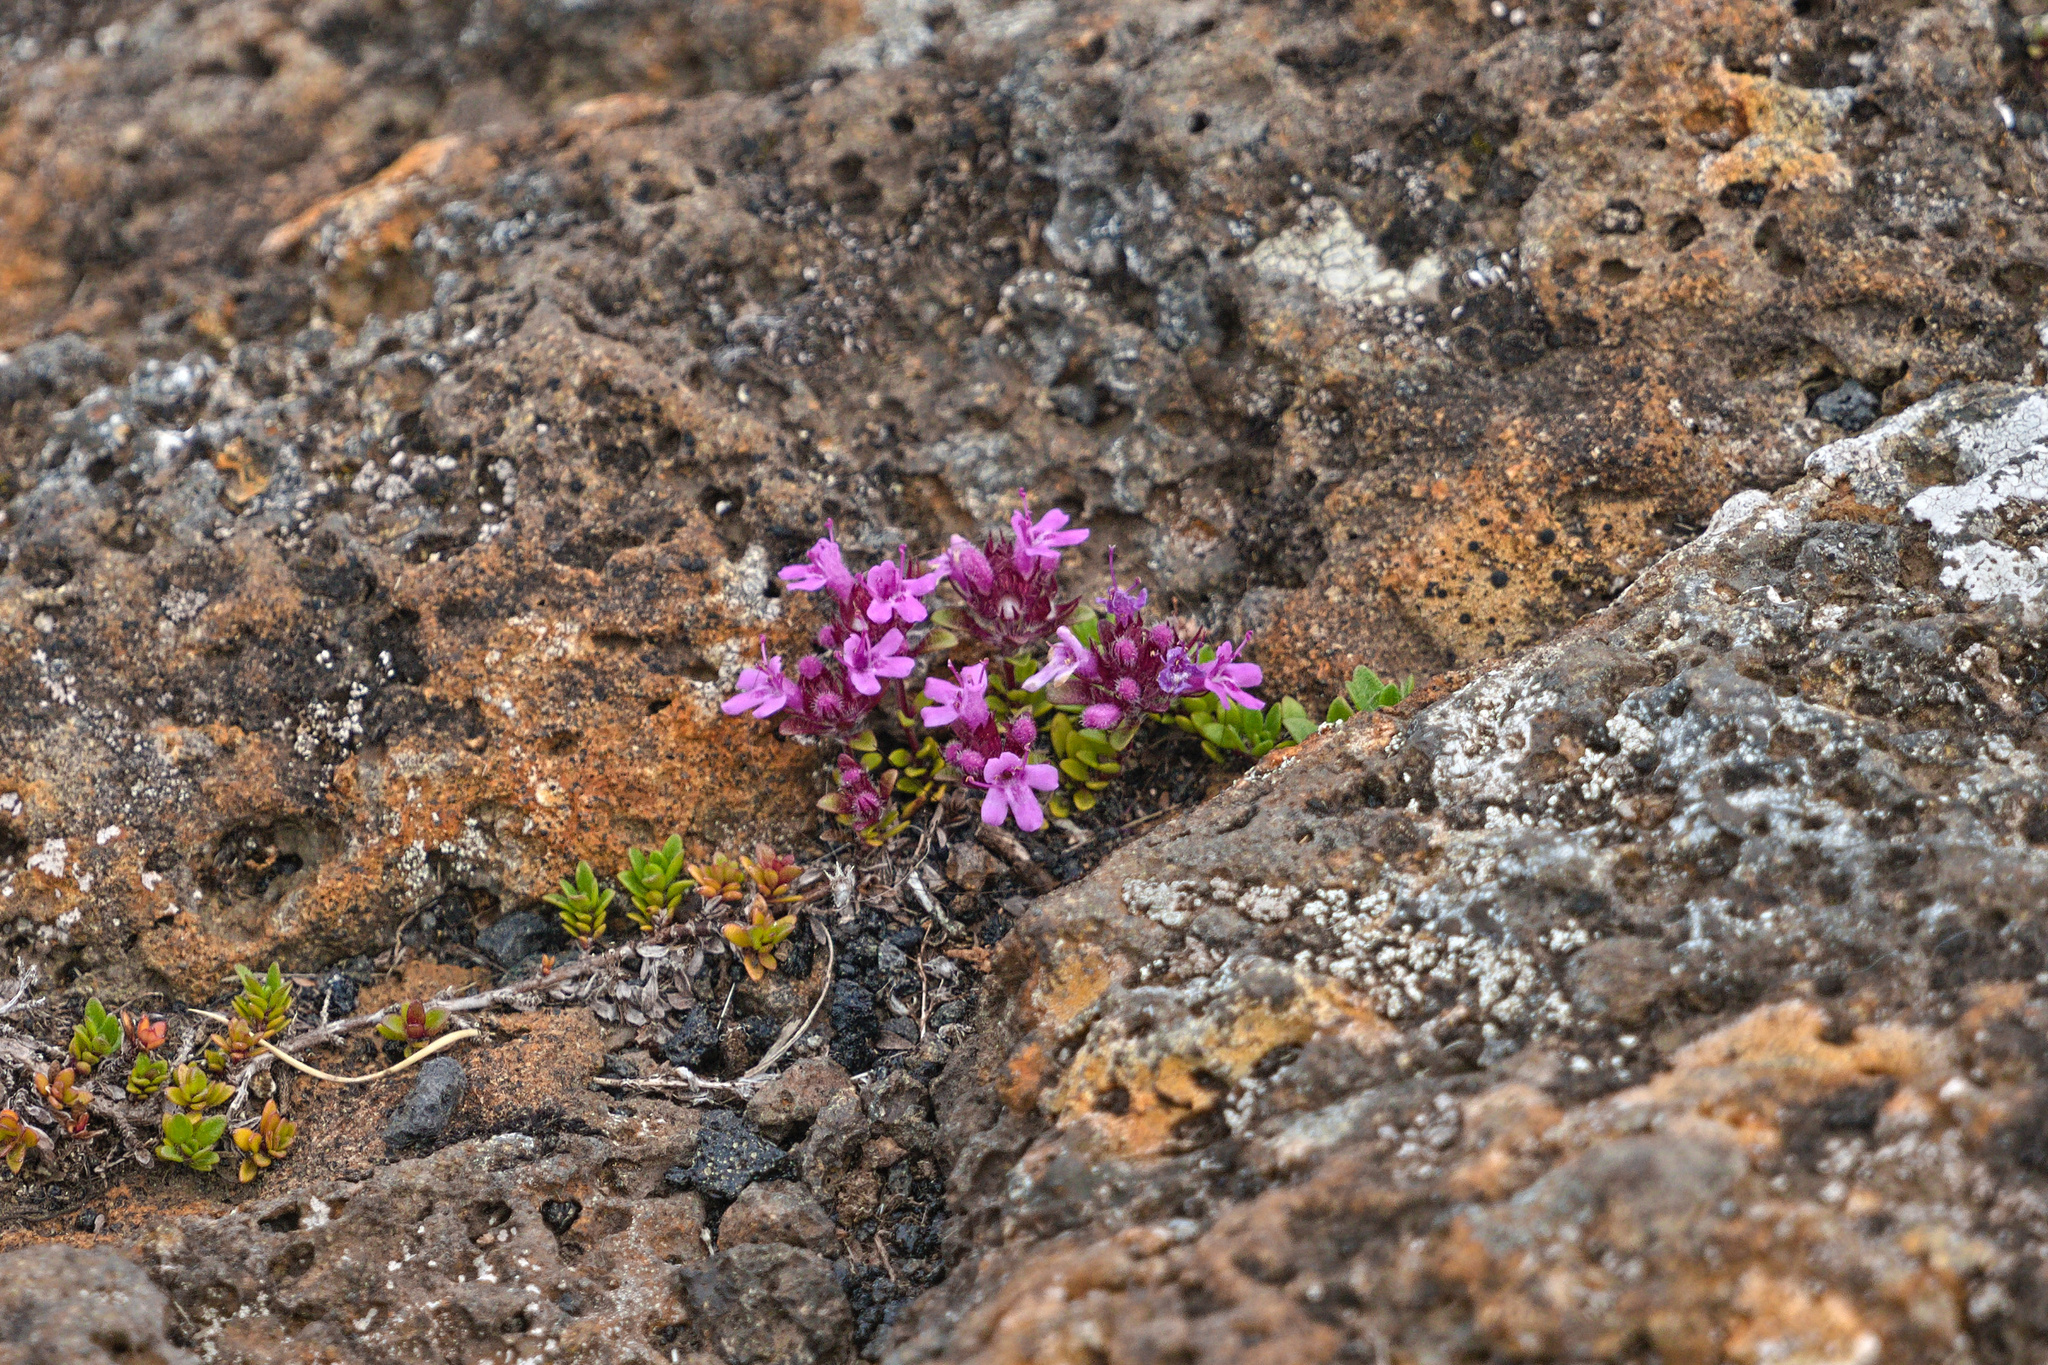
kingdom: Plantae
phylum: Tracheophyta
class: Magnoliopsida
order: Lamiales
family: Lamiaceae
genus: Thymus
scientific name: Thymus praecox
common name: Wild thyme
